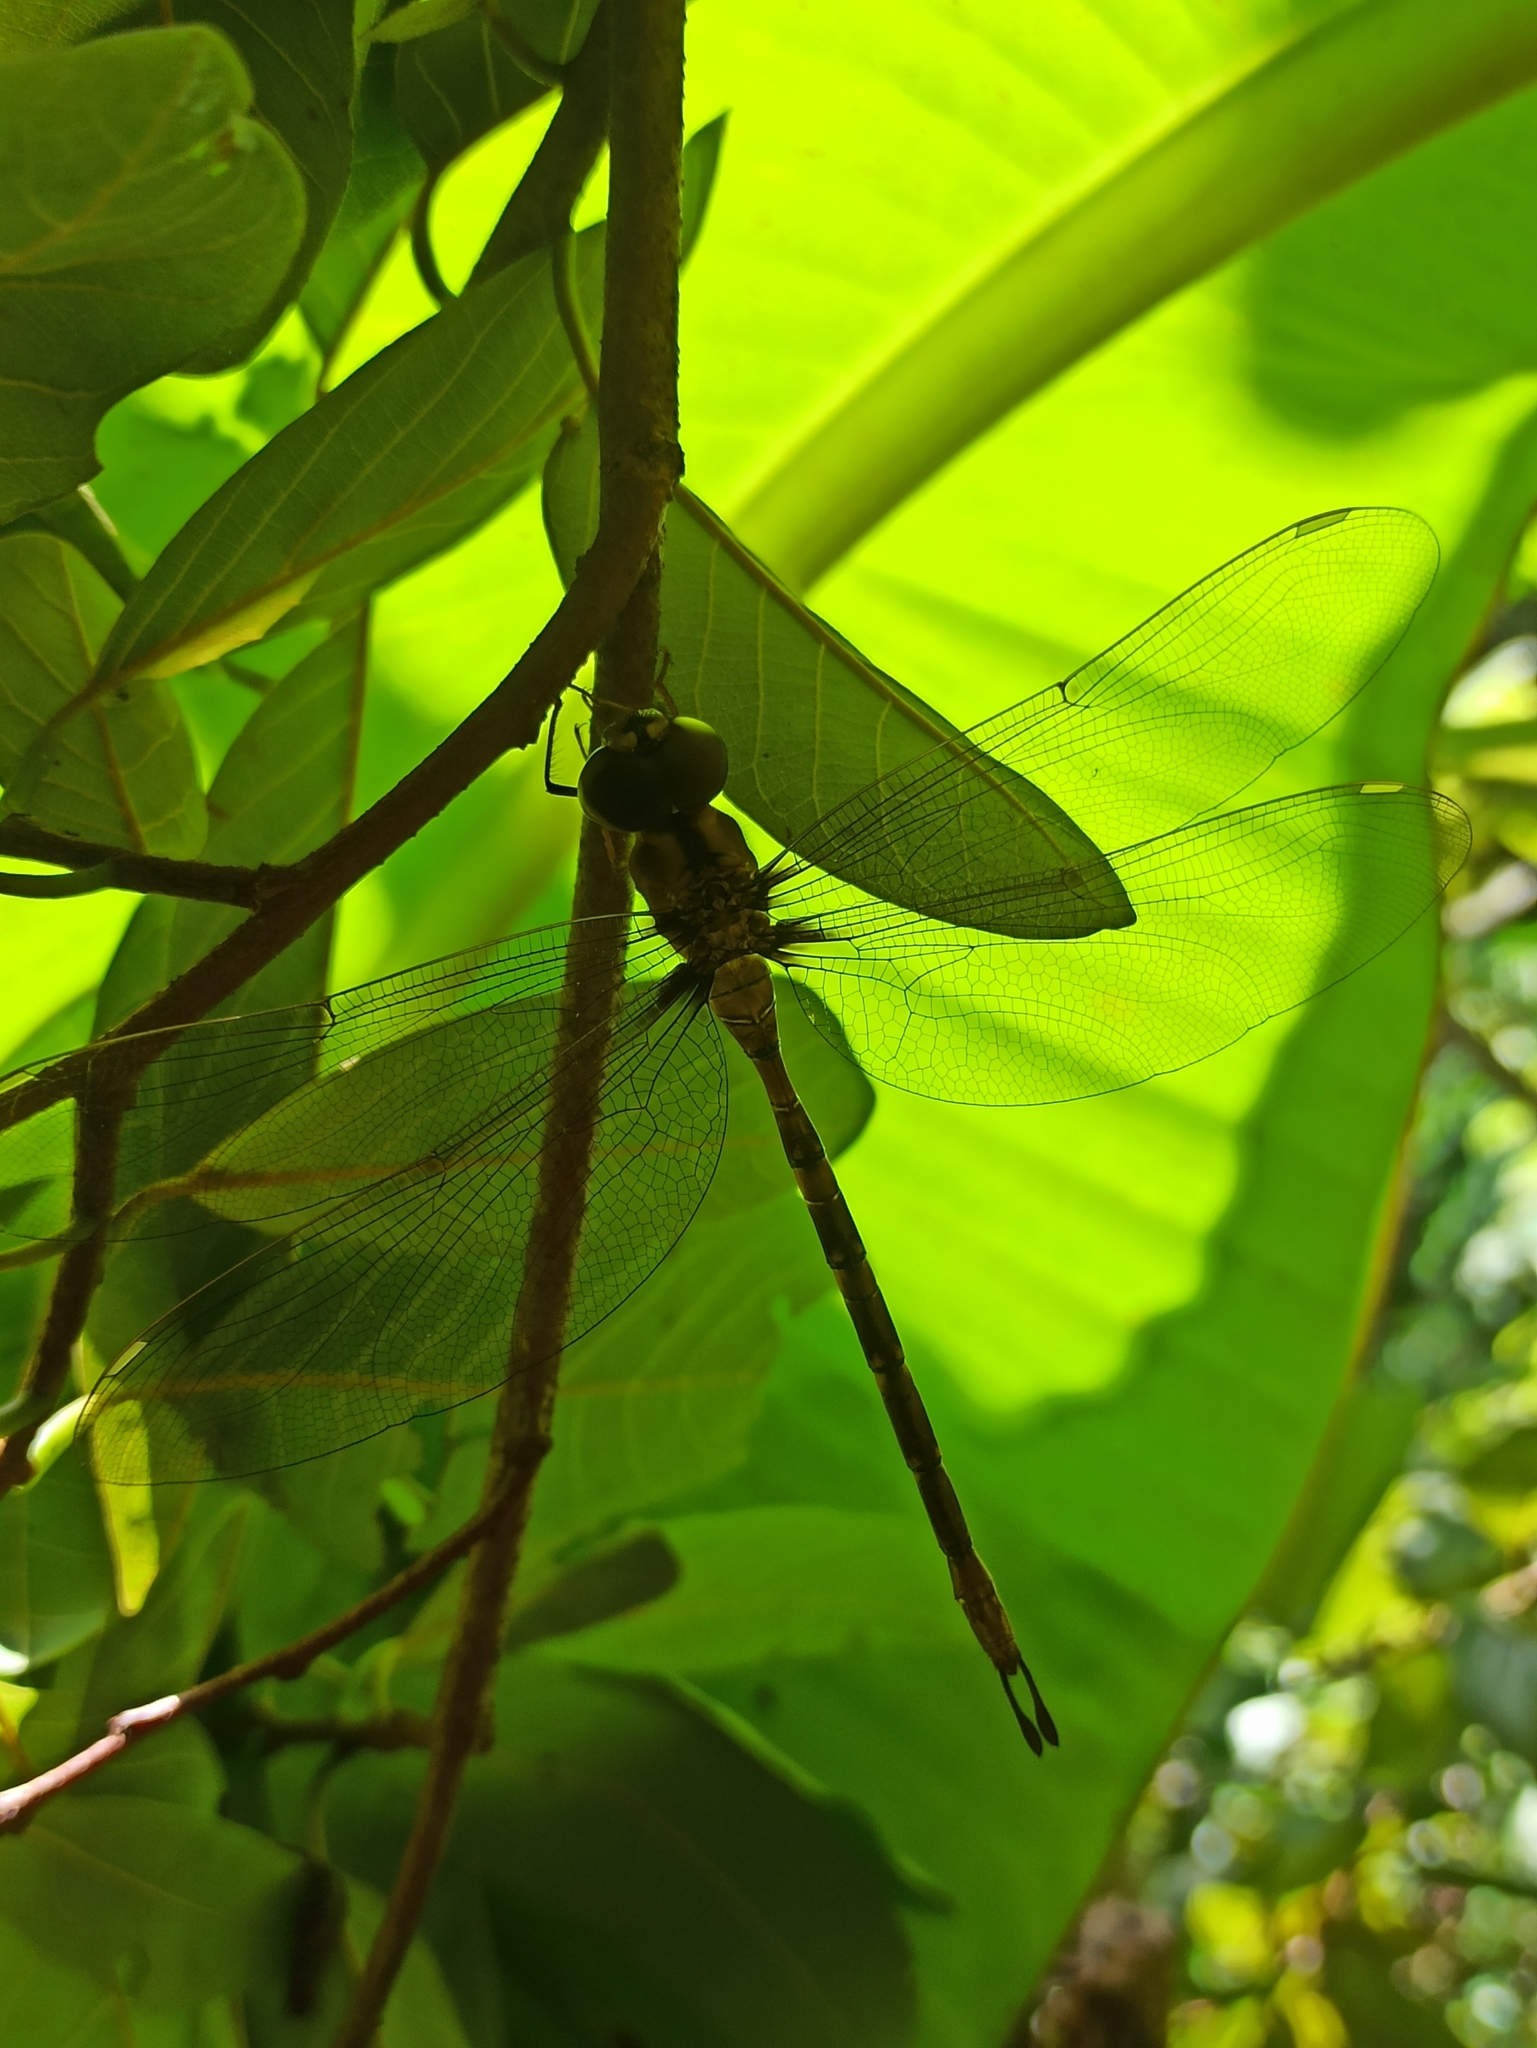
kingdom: Animalia
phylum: Arthropoda
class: Insecta
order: Odonata
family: Aeshnidae
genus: Gynacantha
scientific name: Gynacantha dravida
